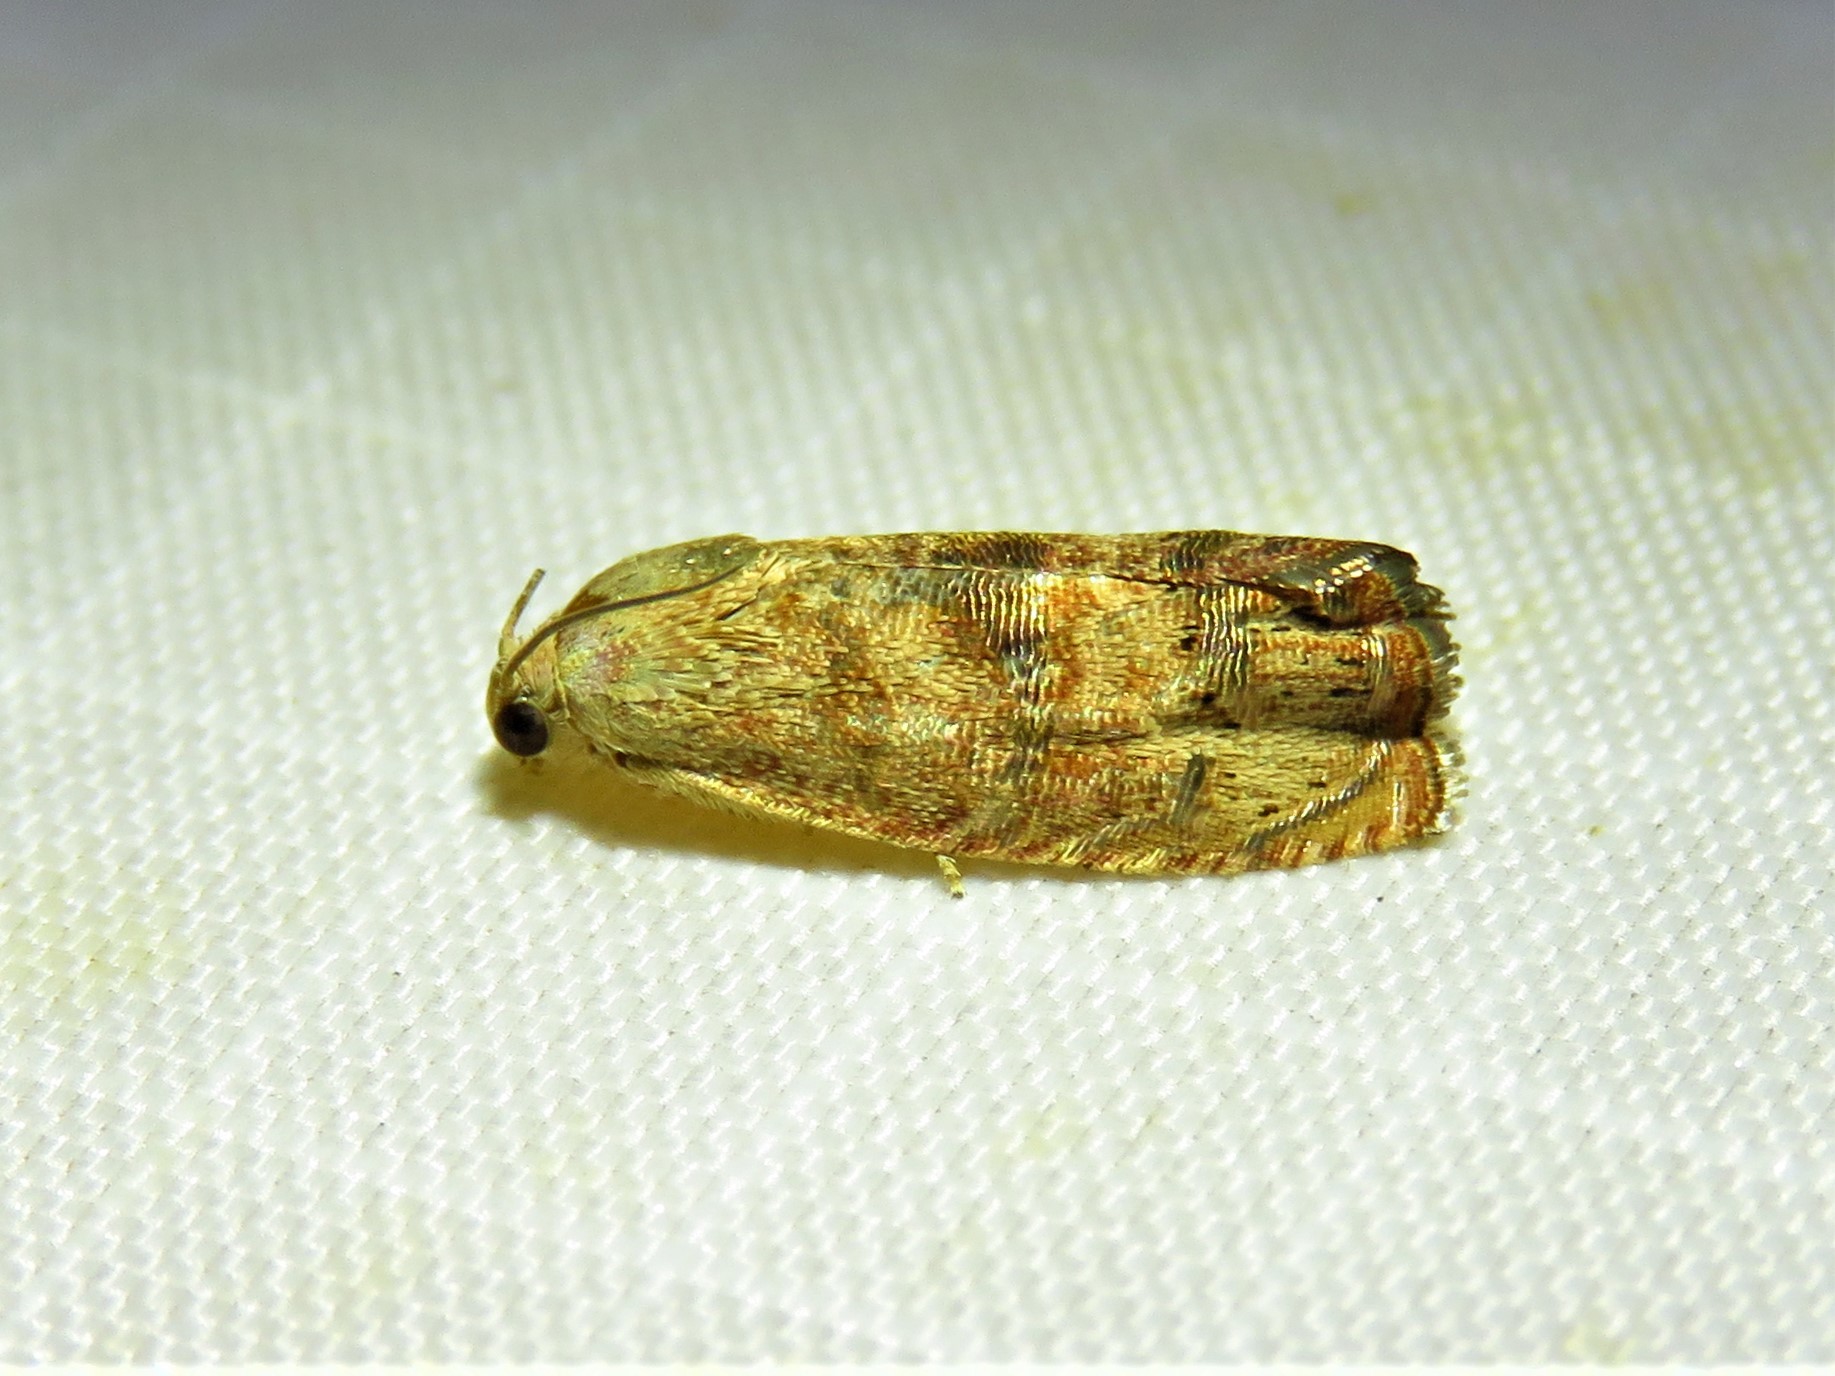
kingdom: Animalia
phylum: Arthropoda
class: Insecta
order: Lepidoptera
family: Tortricidae
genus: Cydia
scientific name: Cydia latiferreana
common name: Filbertworm moth
